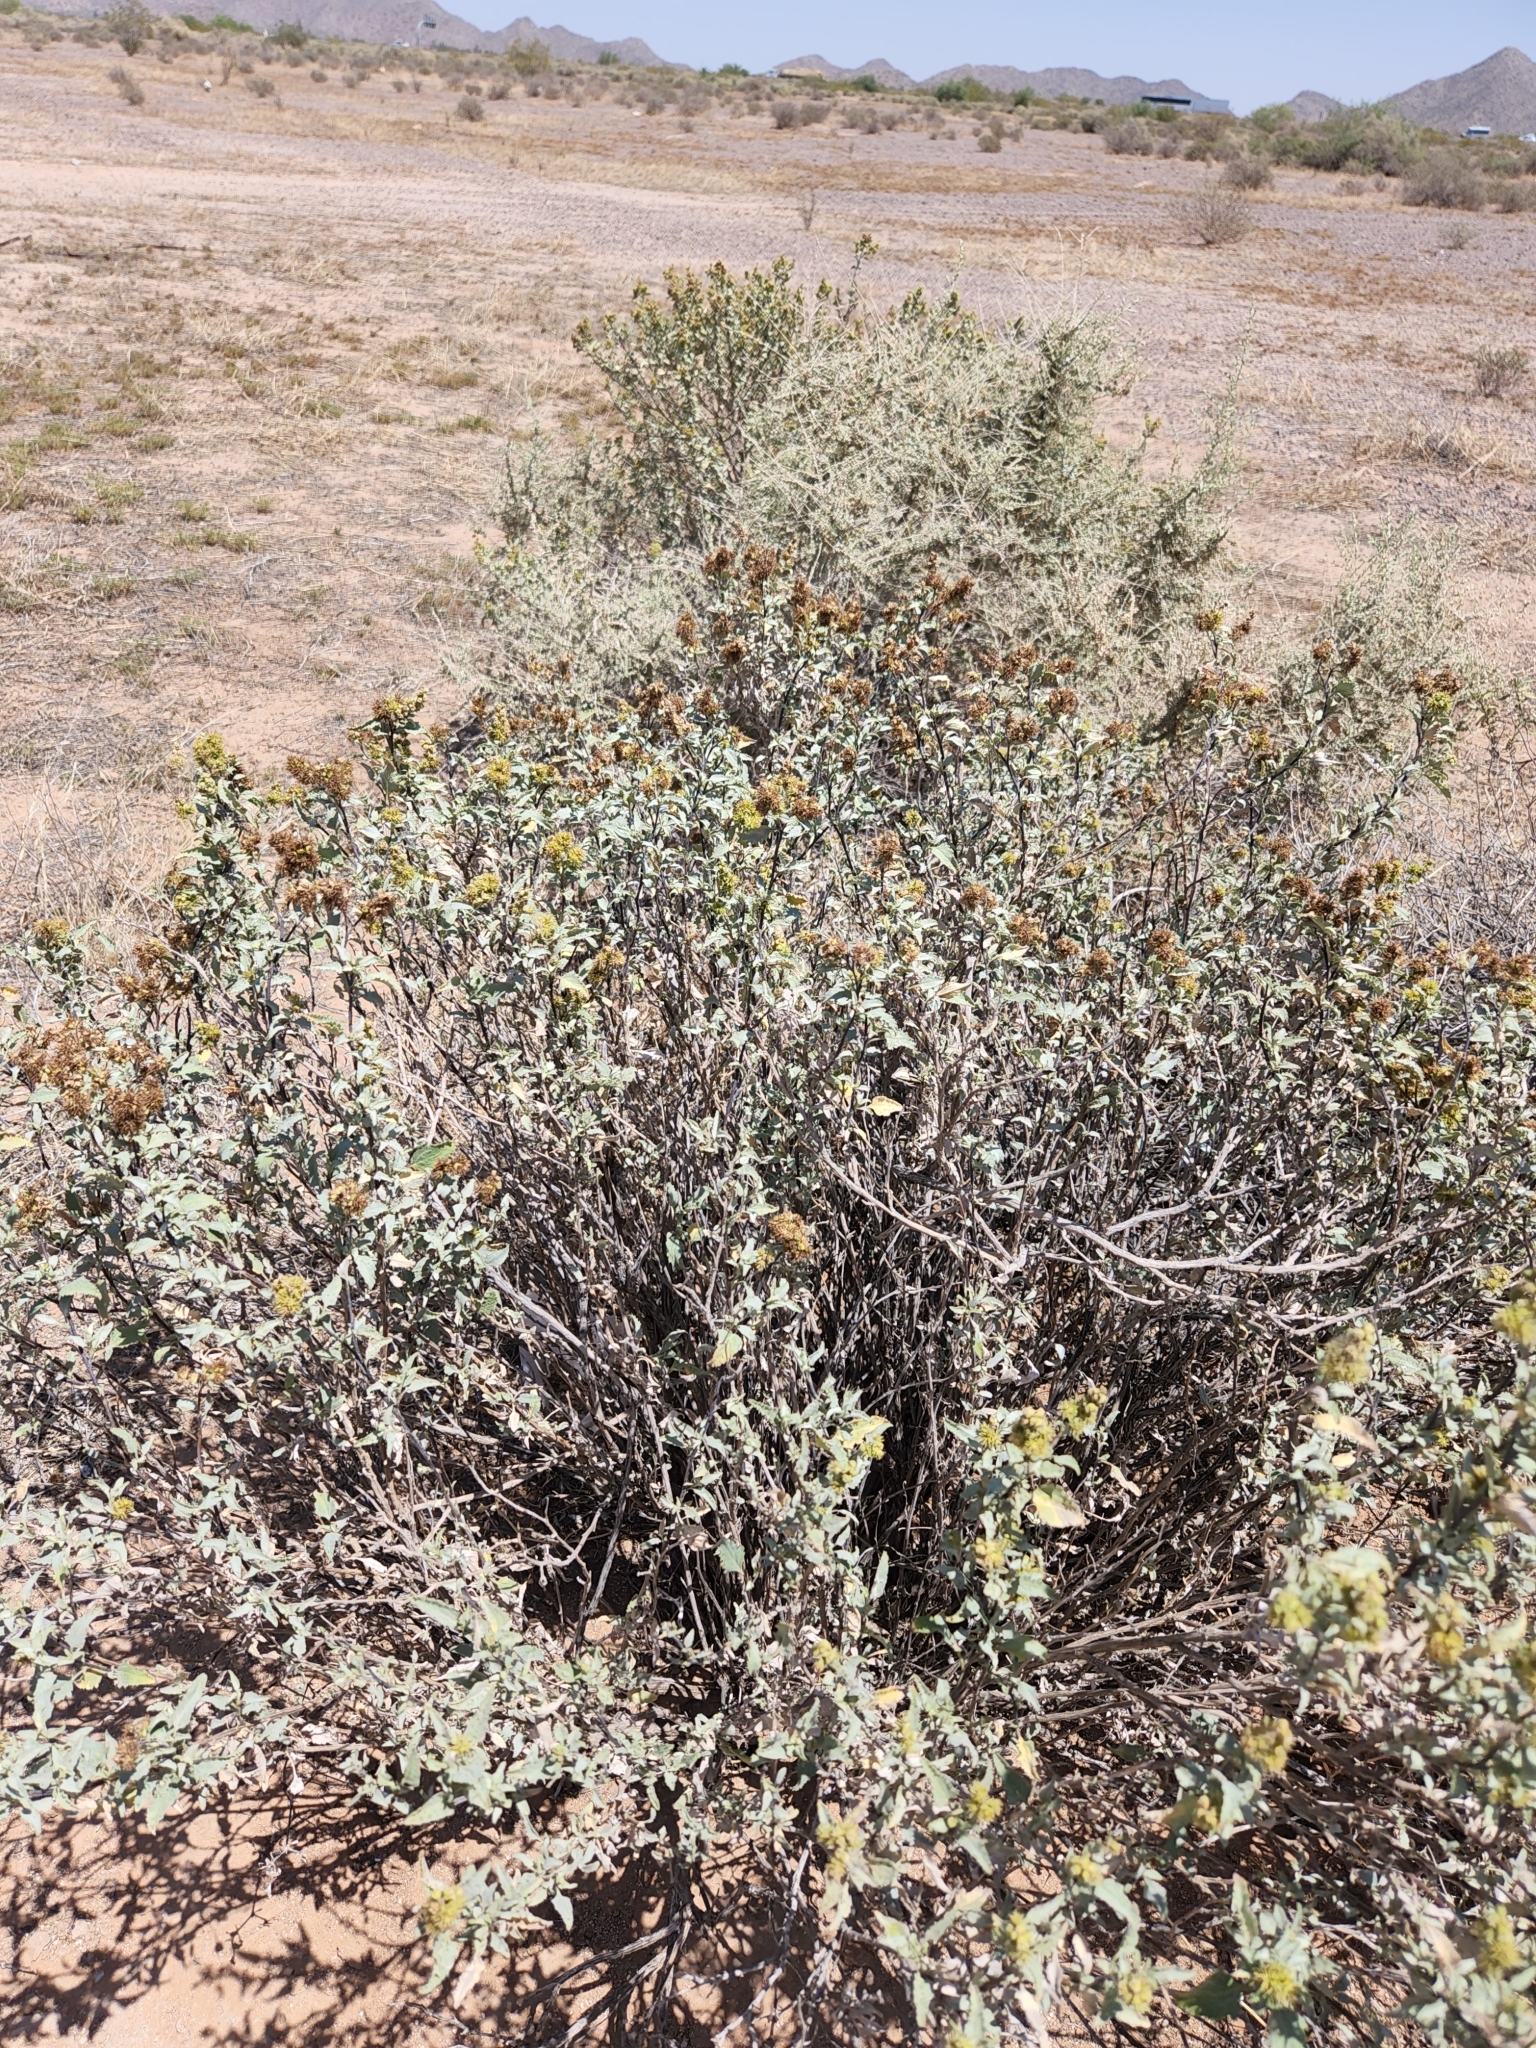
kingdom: Plantae
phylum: Tracheophyta
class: Magnoliopsida
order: Asterales
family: Asteraceae
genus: Ambrosia
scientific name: Ambrosia deltoidea
